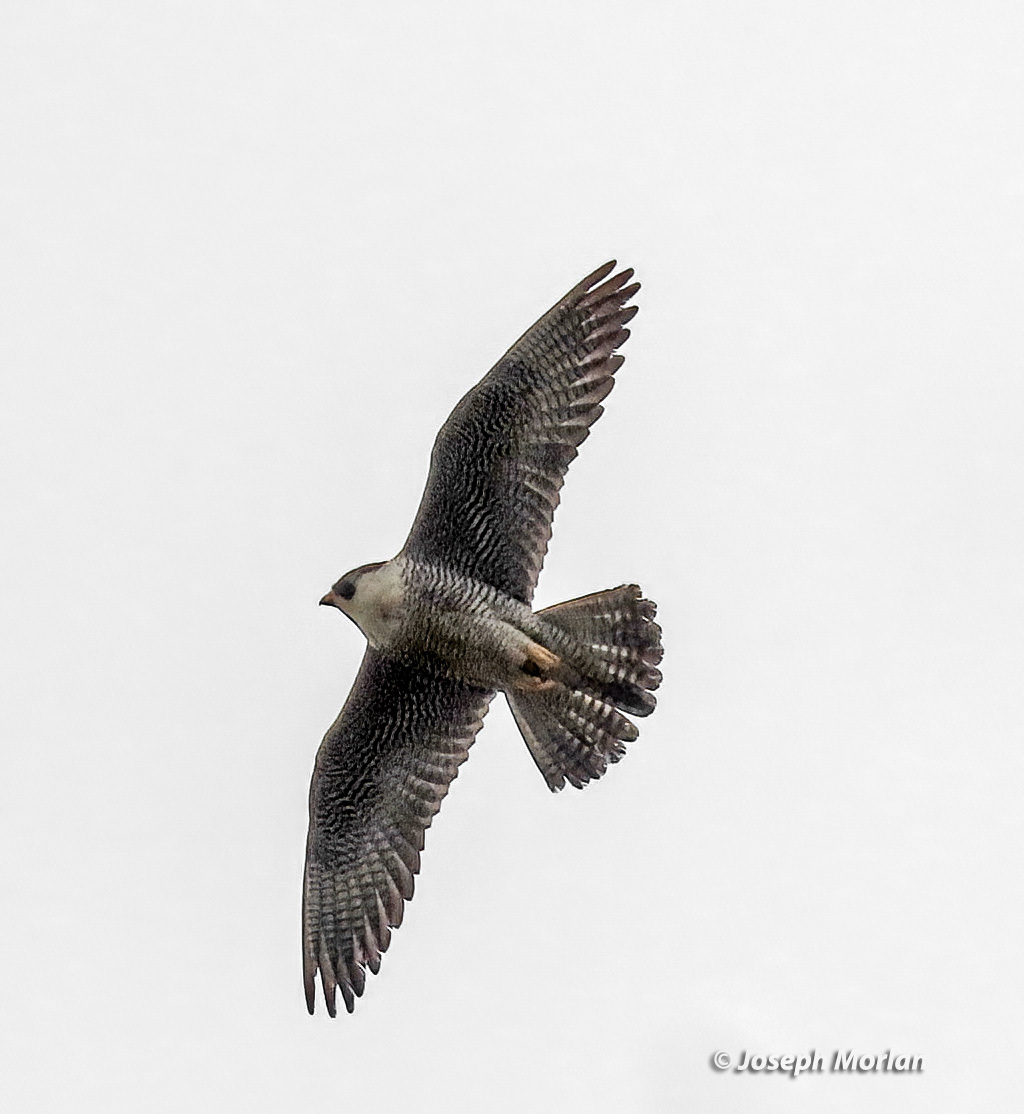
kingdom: Animalia
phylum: Chordata
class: Aves
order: Falconiformes
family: Falconidae
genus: Falco
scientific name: Falco peregrinus
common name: Peregrine falcon
